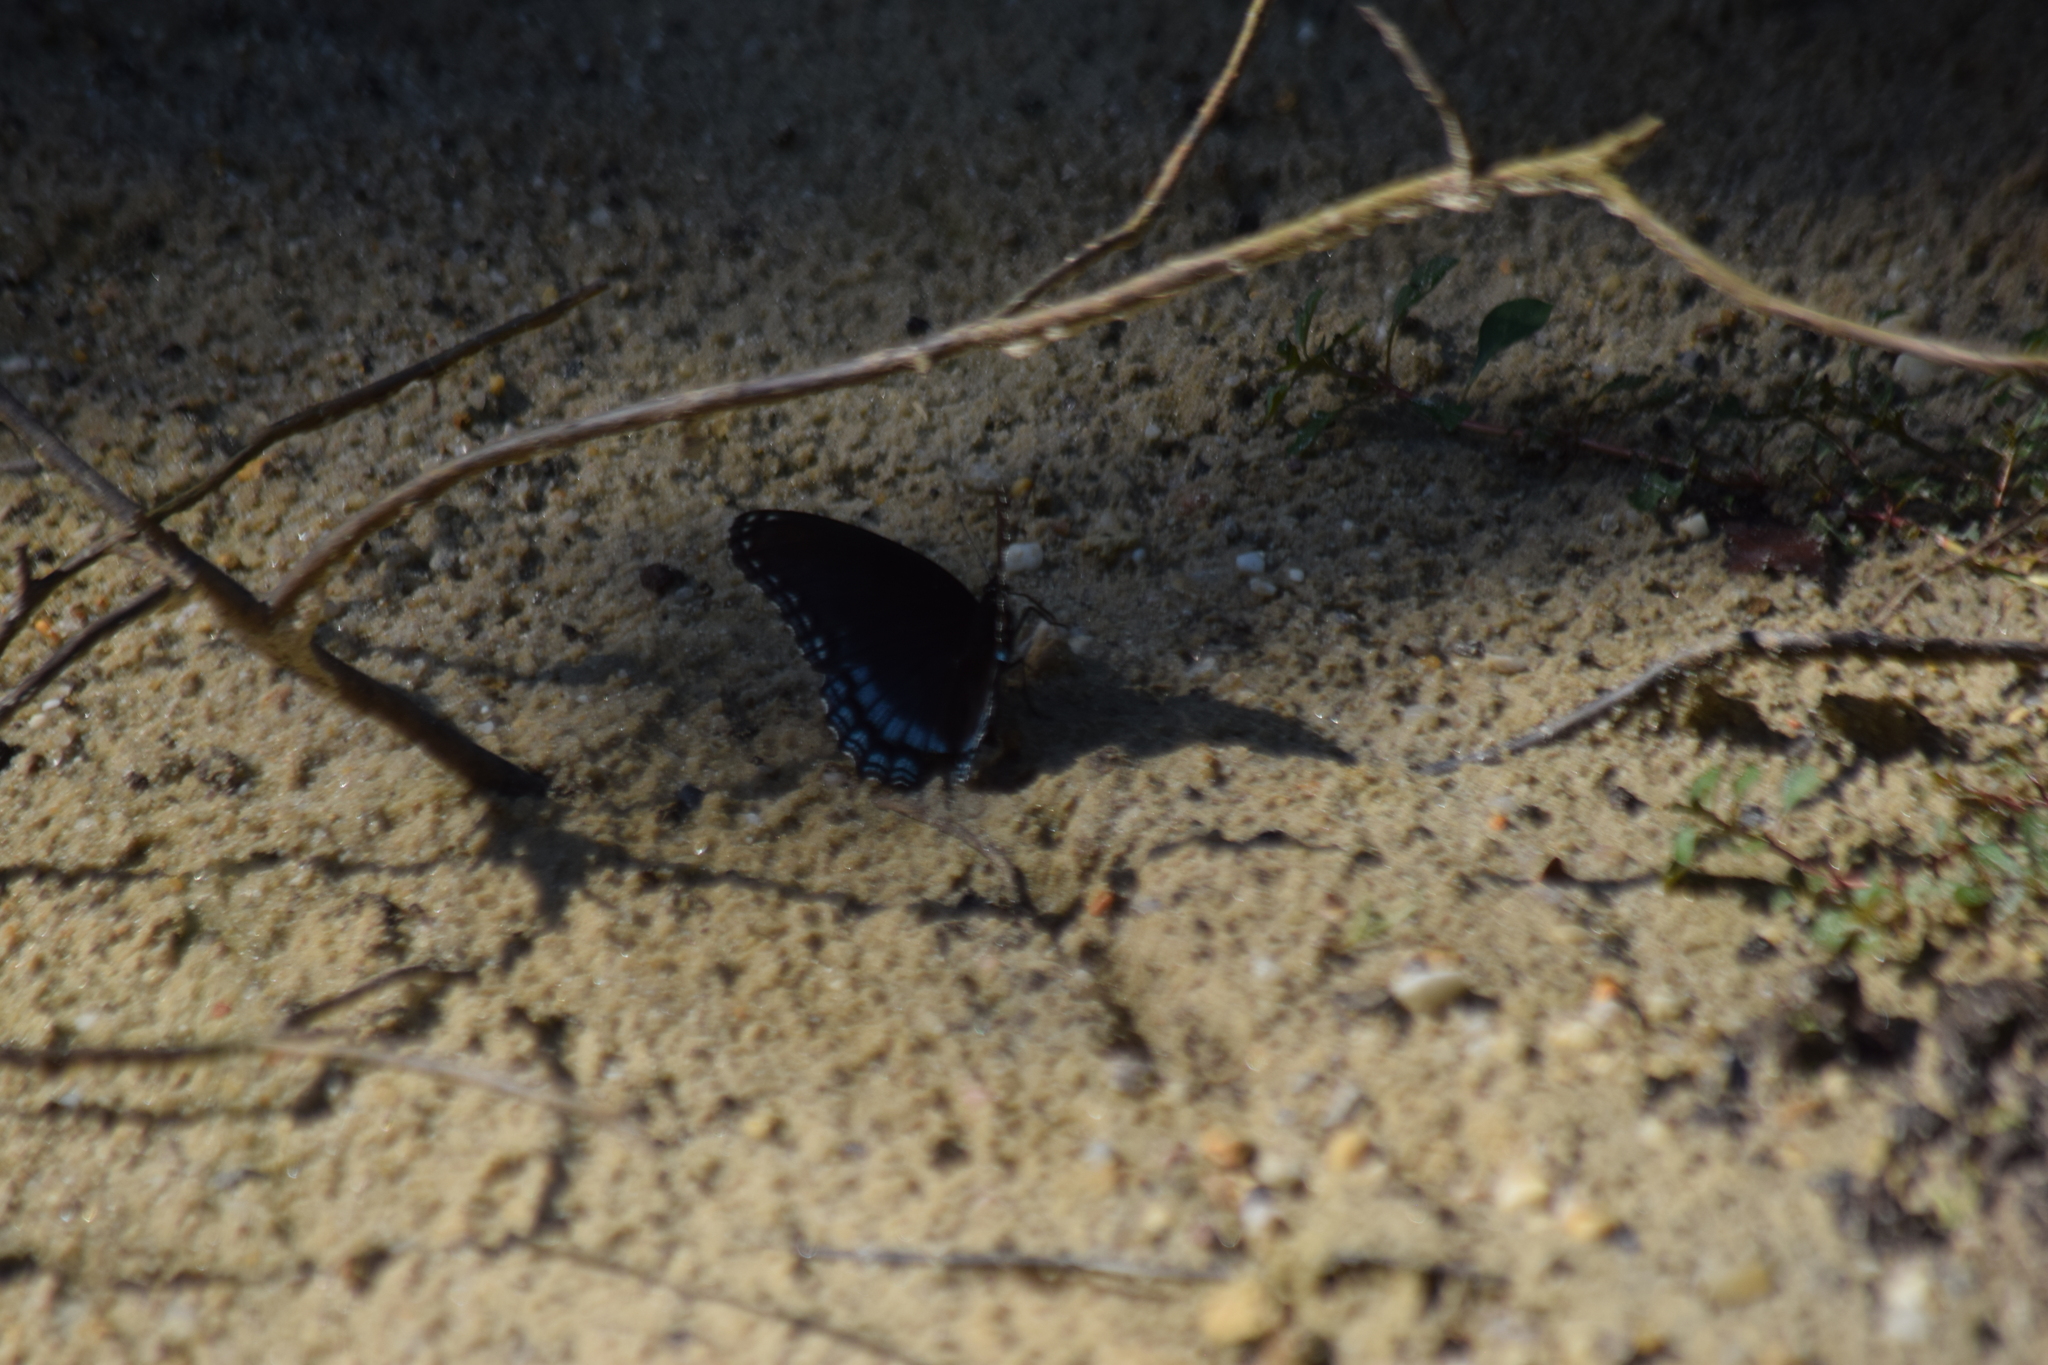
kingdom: Animalia
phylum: Arthropoda
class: Insecta
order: Lepidoptera
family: Nymphalidae
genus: Limenitis
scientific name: Limenitis astyanax
